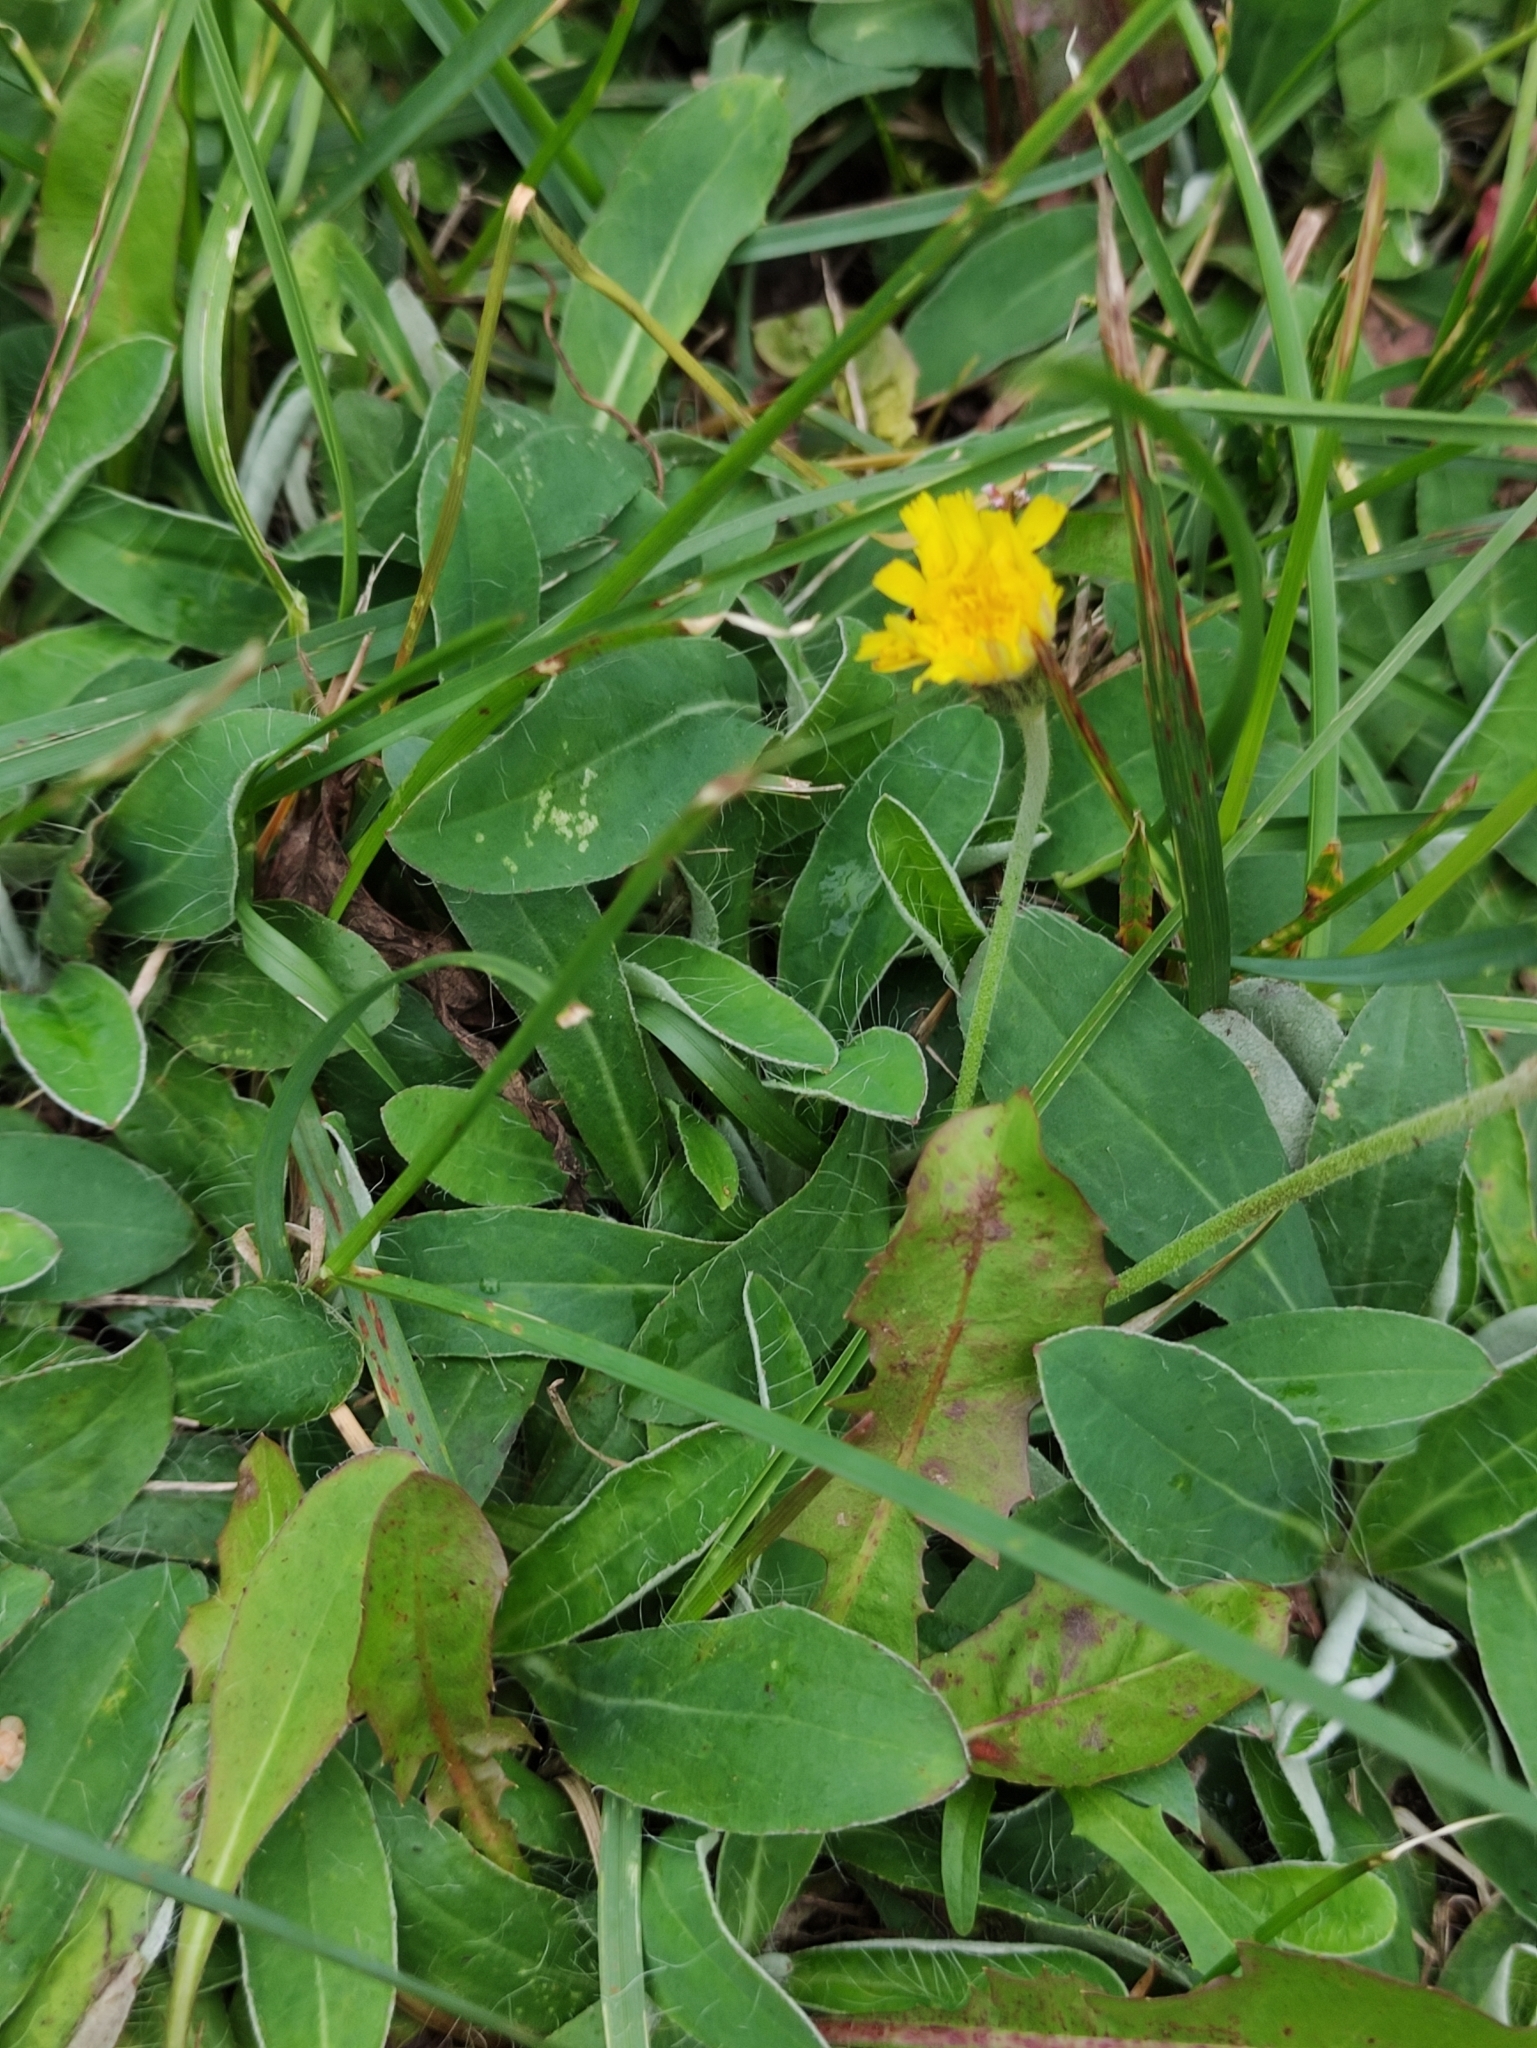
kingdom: Plantae
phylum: Tracheophyta
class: Magnoliopsida
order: Asterales
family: Asteraceae
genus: Pilosella
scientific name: Pilosella officinarum
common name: Mouse-ear hawkweed
